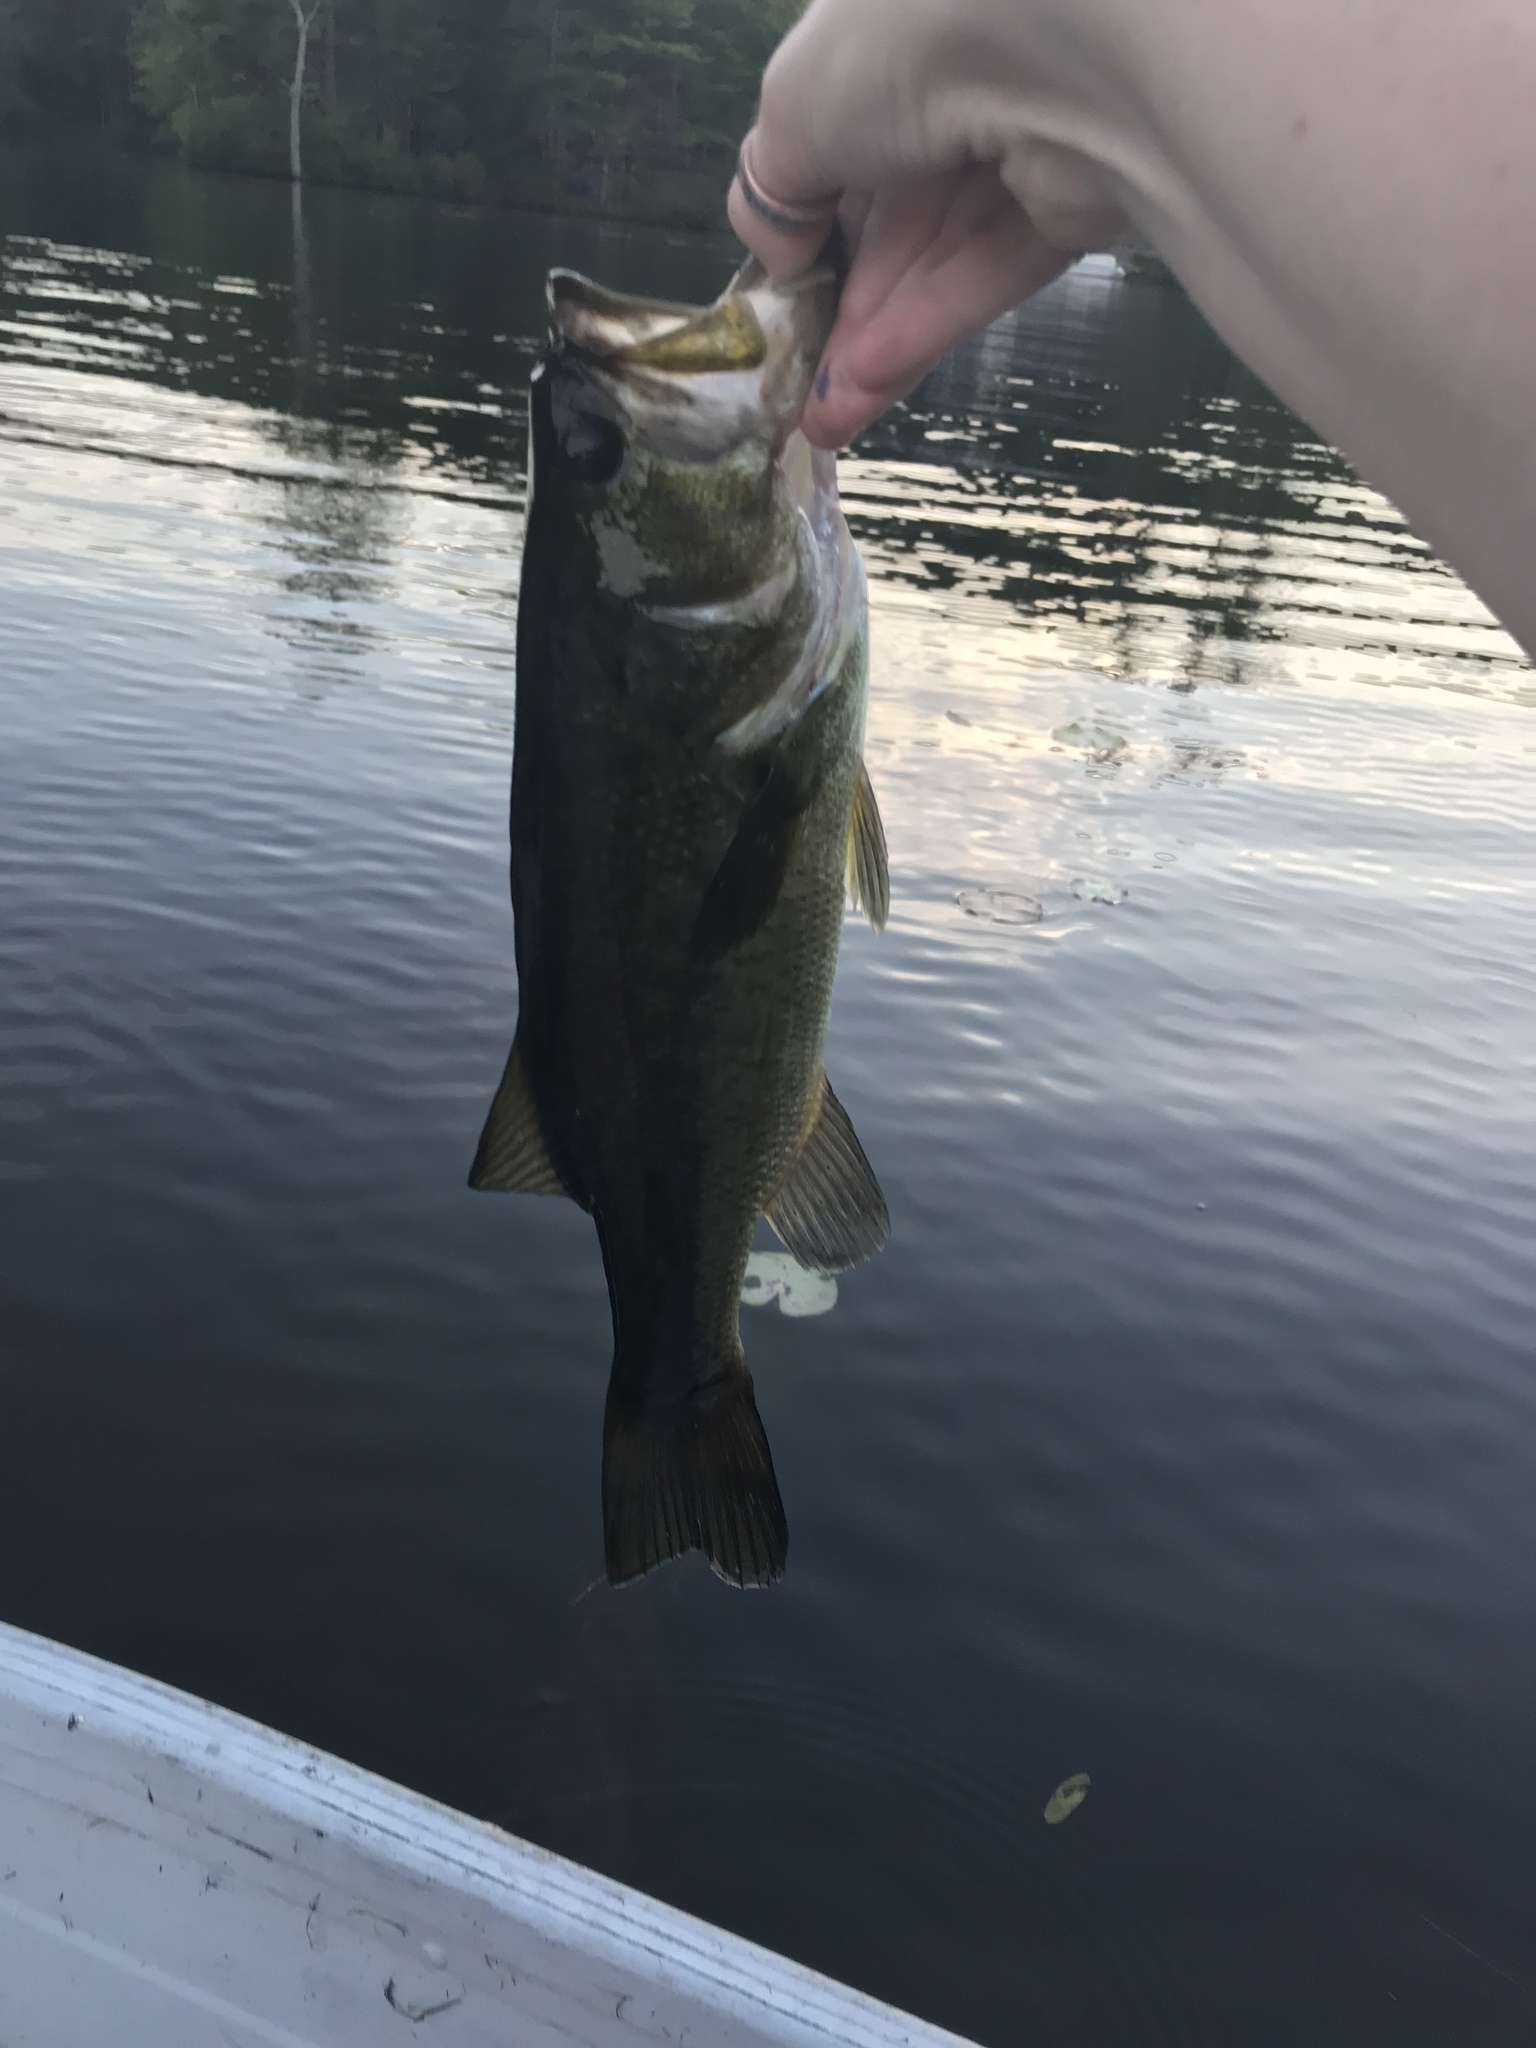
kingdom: Animalia
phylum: Chordata
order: Perciformes
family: Centrarchidae
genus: Micropterus
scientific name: Micropterus
